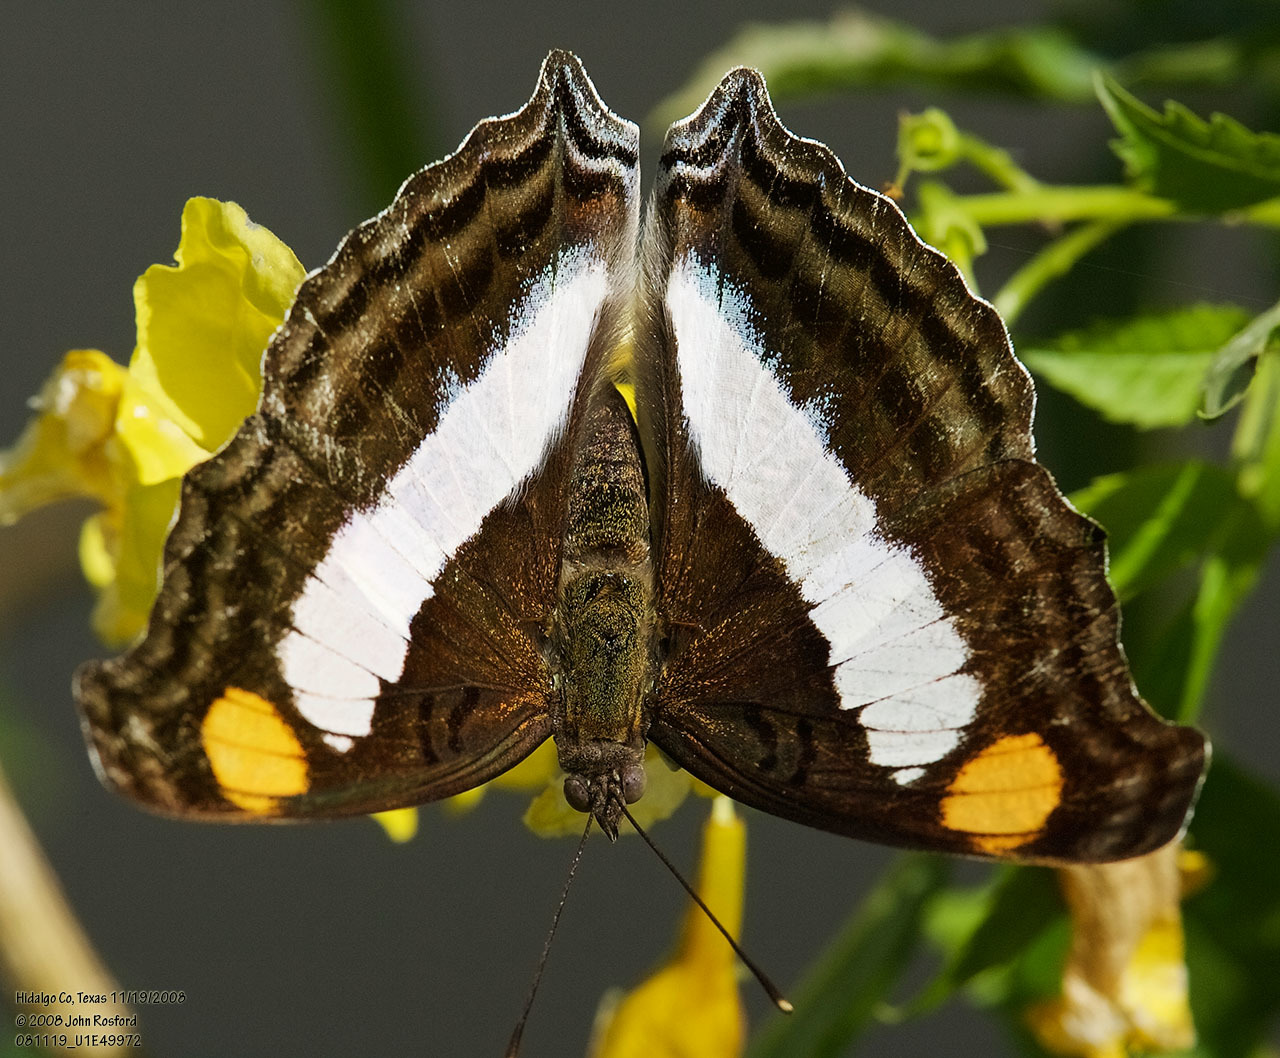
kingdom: Animalia
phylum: Arthropoda
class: Insecta
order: Lepidoptera
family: Nymphalidae
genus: Doxocopa
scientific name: Doxocopa laure
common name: Silver emperor
